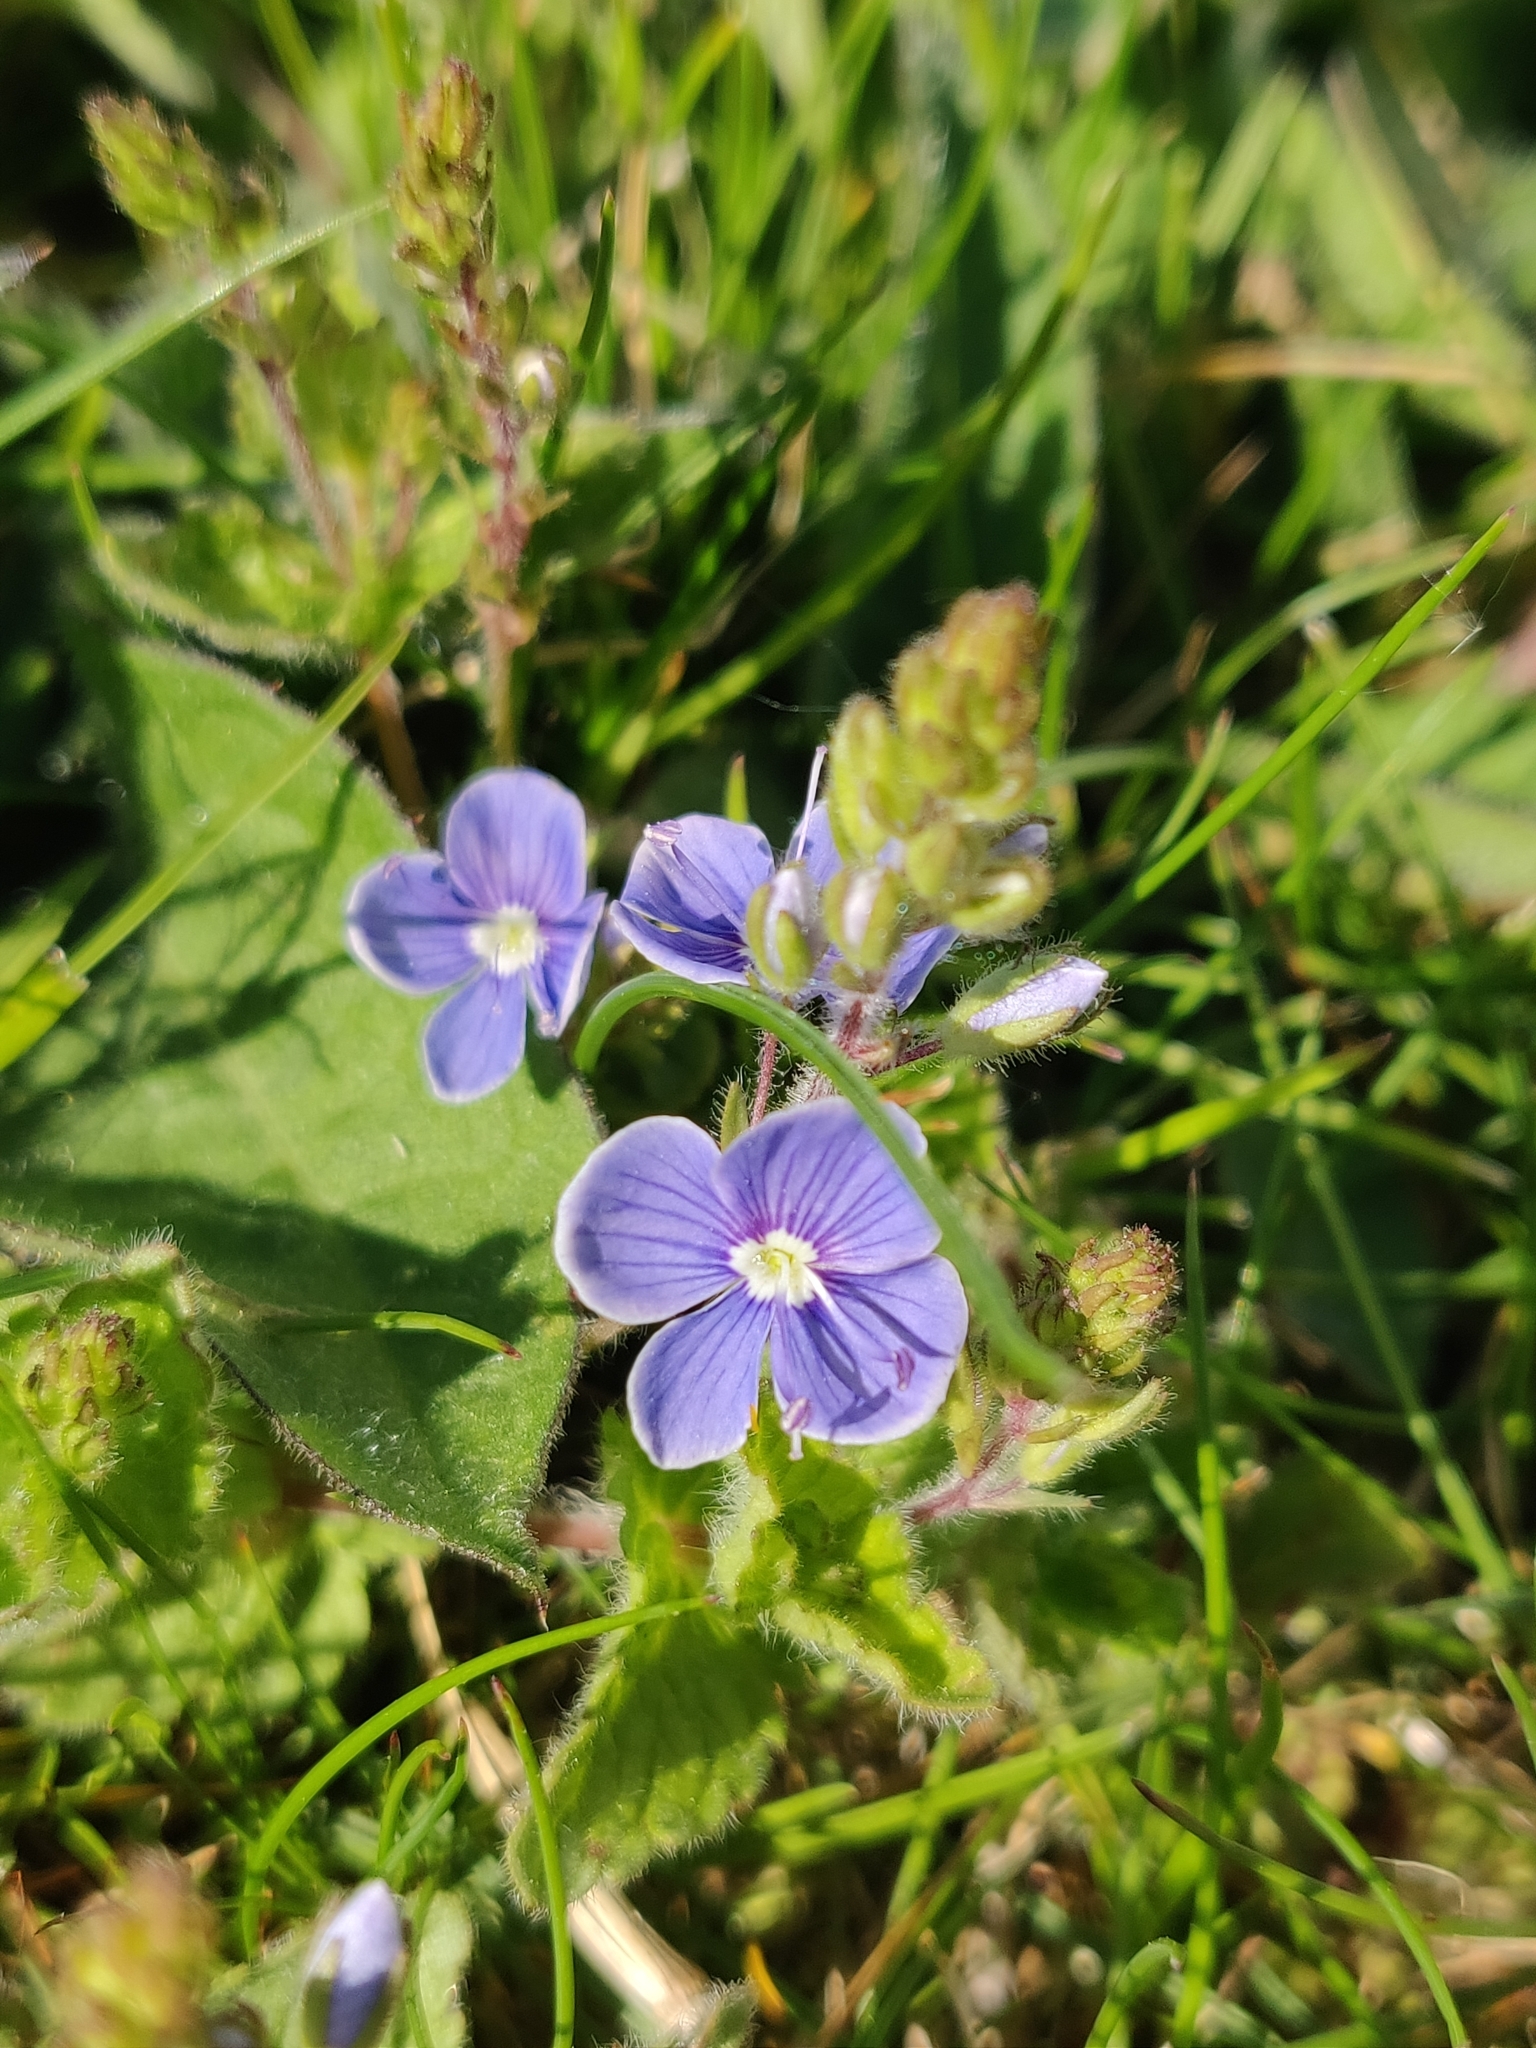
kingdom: Plantae
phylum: Tracheophyta
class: Magnoliopsida
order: Lamiales
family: Plantaginaceae
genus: Veronica
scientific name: Veronica chamaedrys
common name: Germander speedwell
